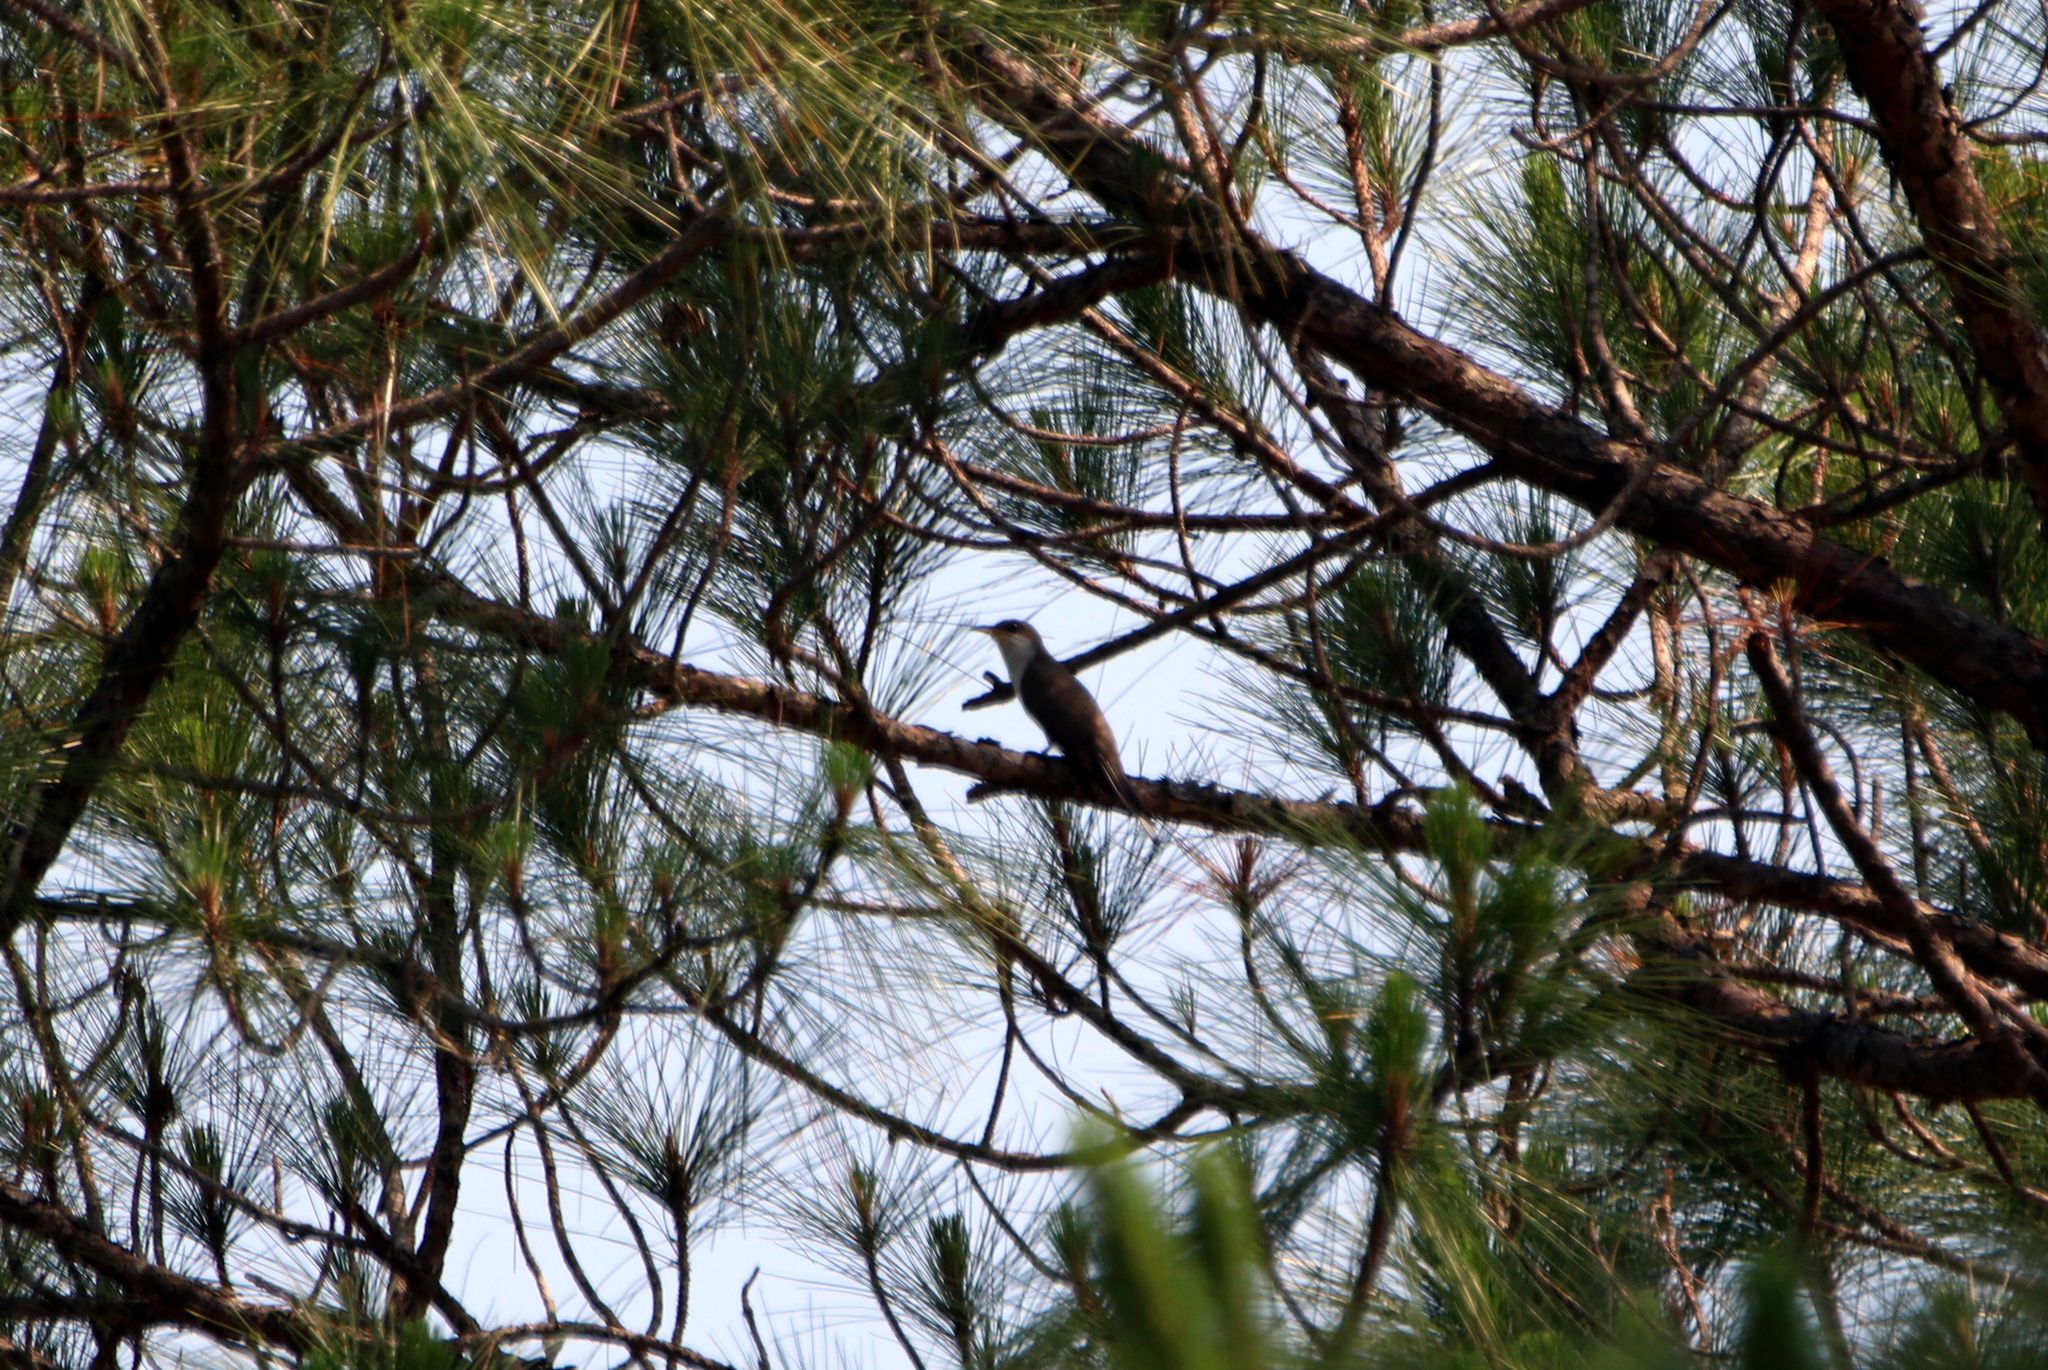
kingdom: Animalia
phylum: Chordata
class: Aves
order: Cuculiformes
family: Cuculidae
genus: Coccyzus
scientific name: Coccyzus americanus
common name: Yellow-billed cuckoo
